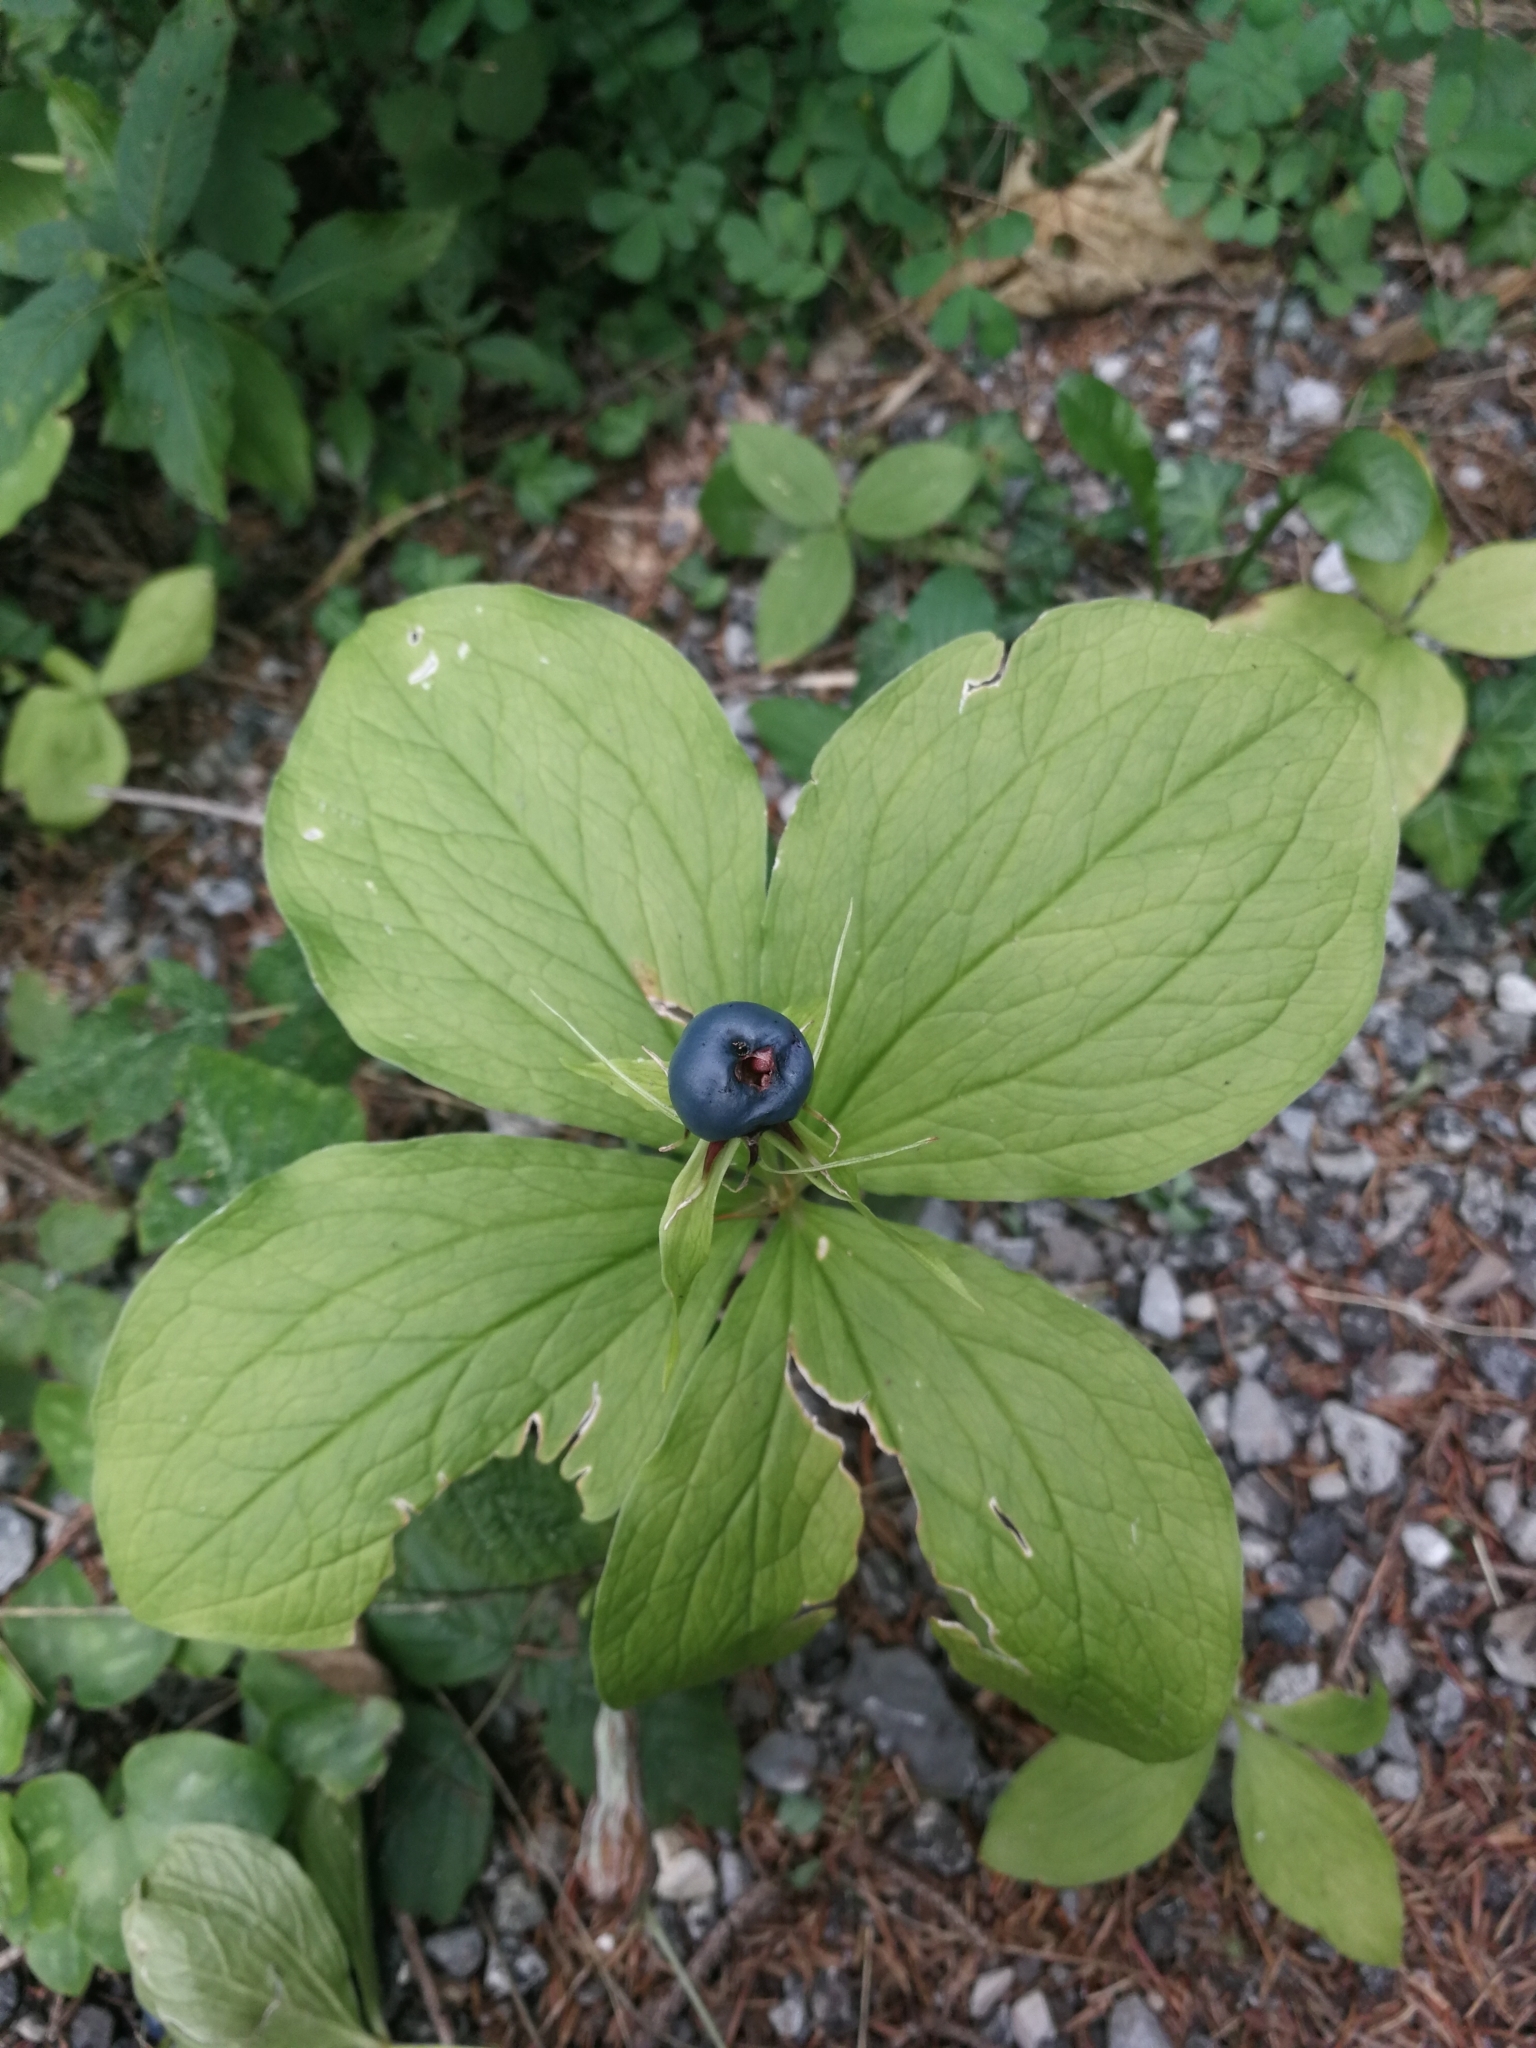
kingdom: Plantae
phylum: Tracheophyta
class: Liliopsida
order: Liliales
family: Melanthiaceae
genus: Paris
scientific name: Paris quadrifolia
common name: Herb-paris
